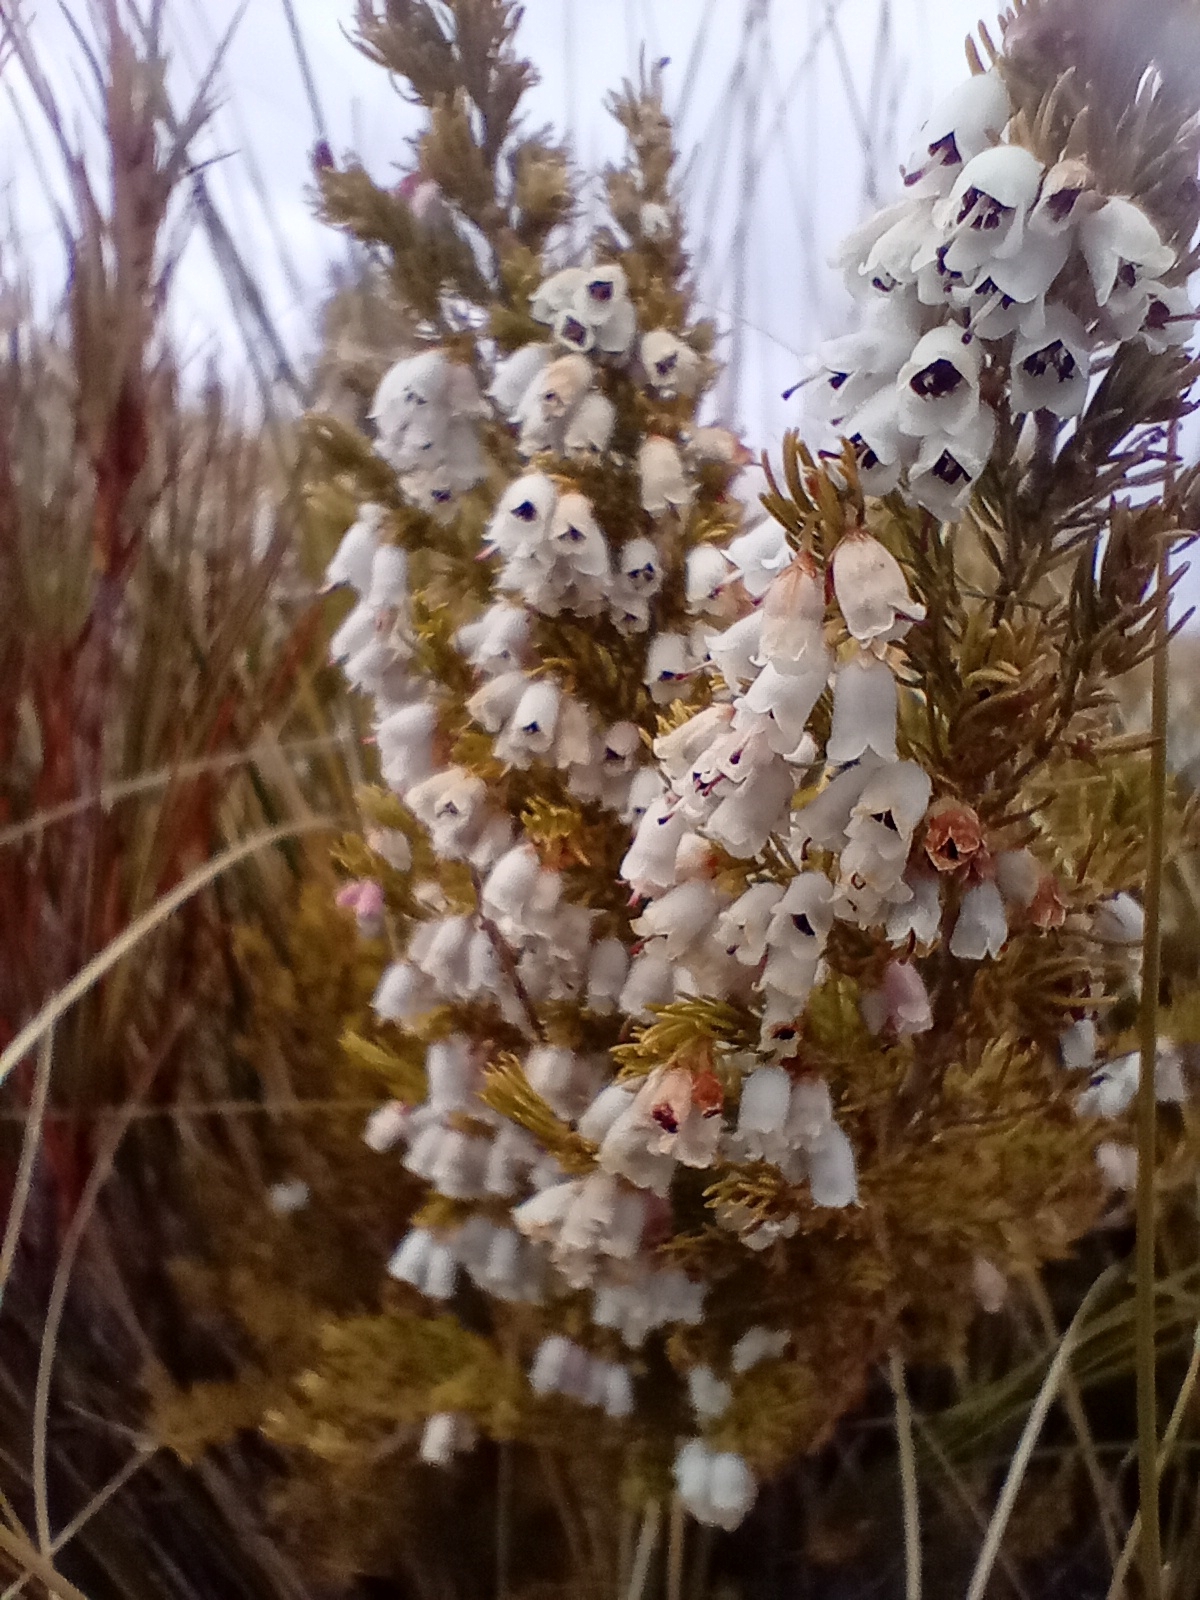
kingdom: Plantae
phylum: Tracheophyta
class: Magnoliopsida
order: Ericales
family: Ericaceae
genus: Erica
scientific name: Erica lusitanica
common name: Spanish heath
